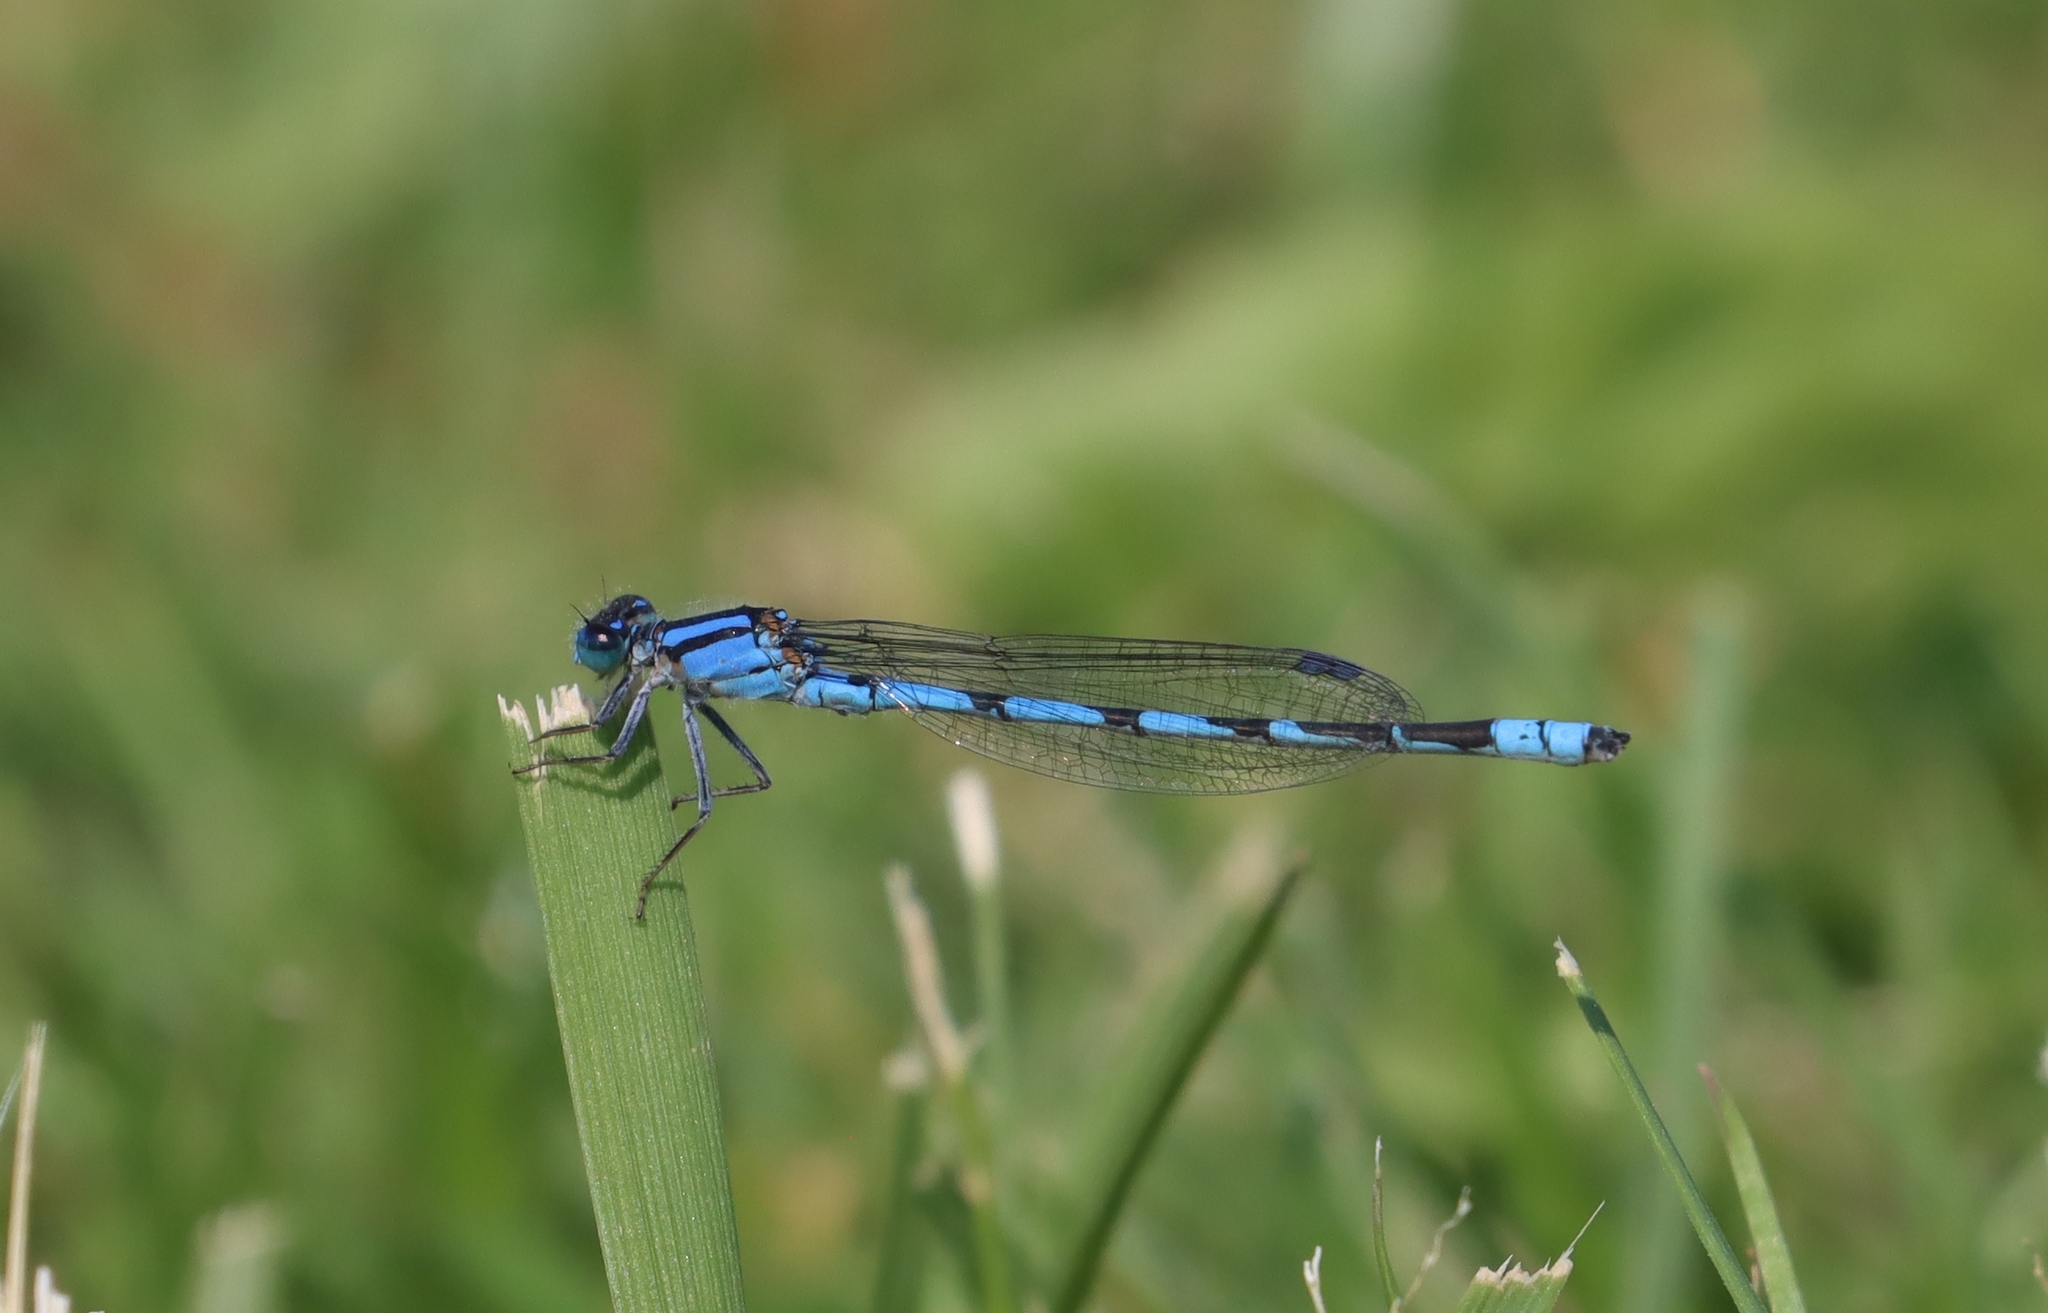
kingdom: Animalia
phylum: Arthropoda
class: Insecta
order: Odonata
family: Coenagrionidae
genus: Enallagma
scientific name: Enallagma civile
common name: Damselfly
